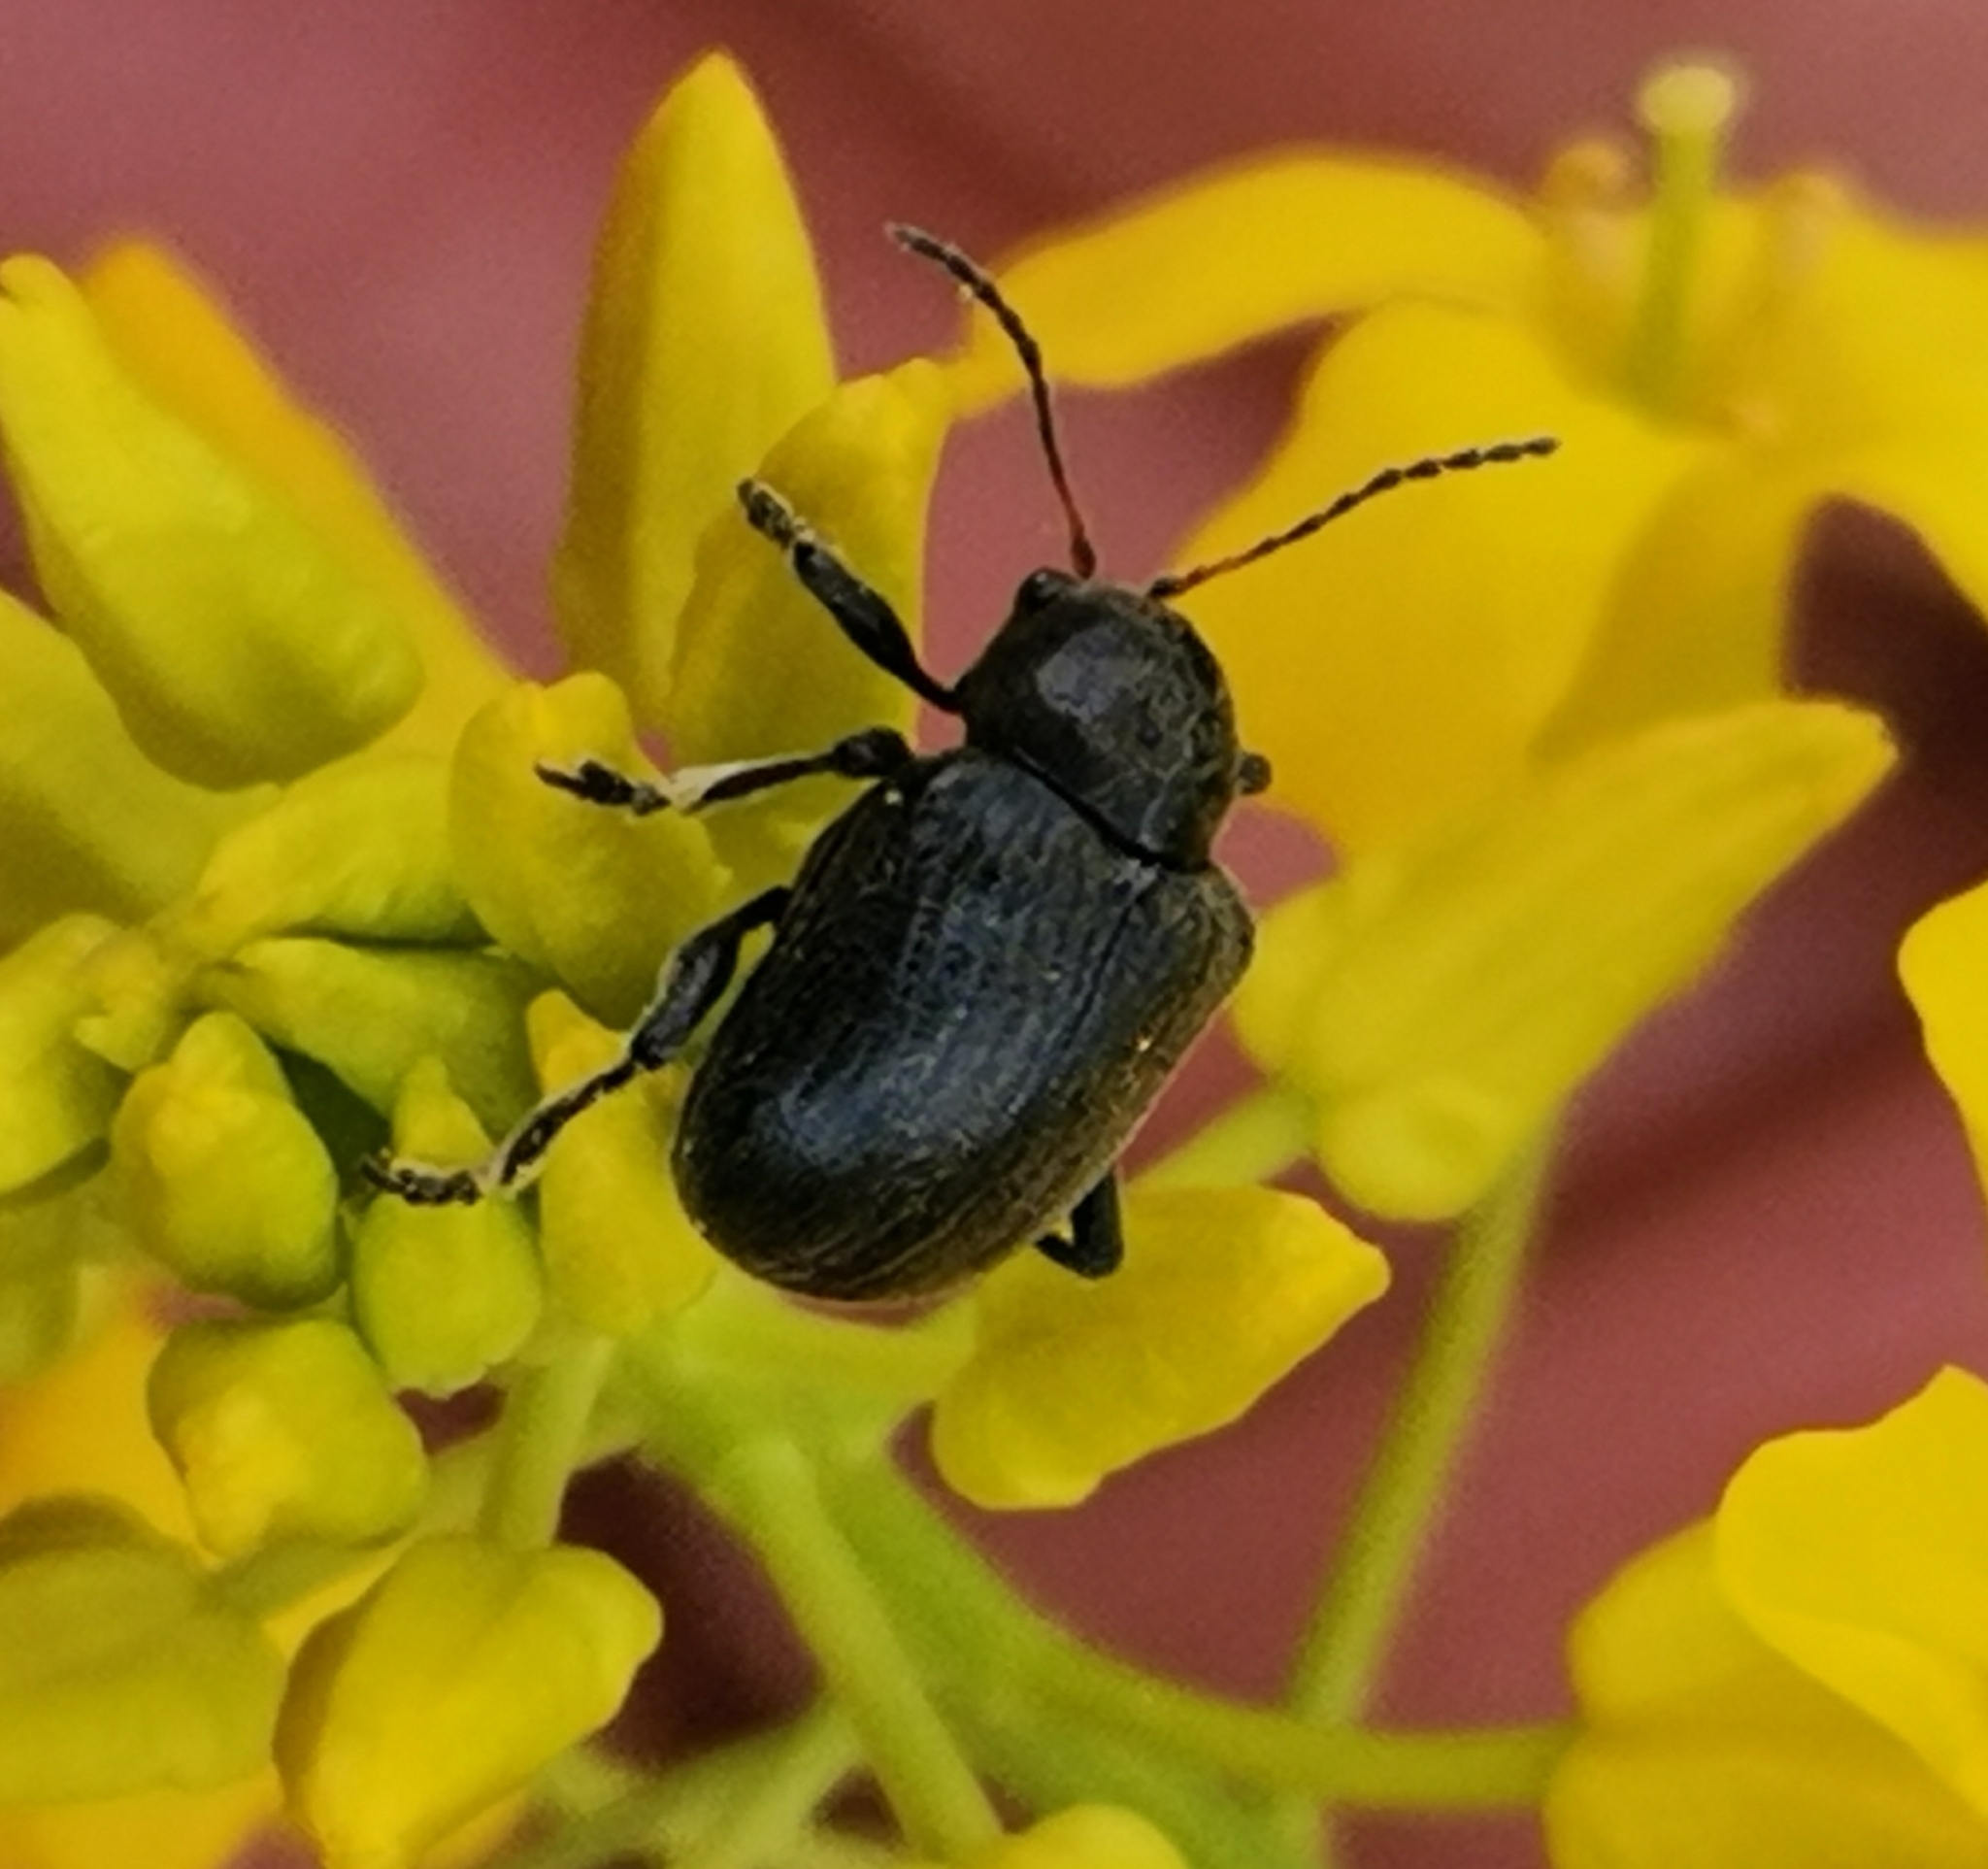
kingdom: Animalia
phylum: Arthropoda
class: Insecta
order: Coleoptera
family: Chrysomelidae
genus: Bromius
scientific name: Bromius obscurus
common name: Western grape rootworm
